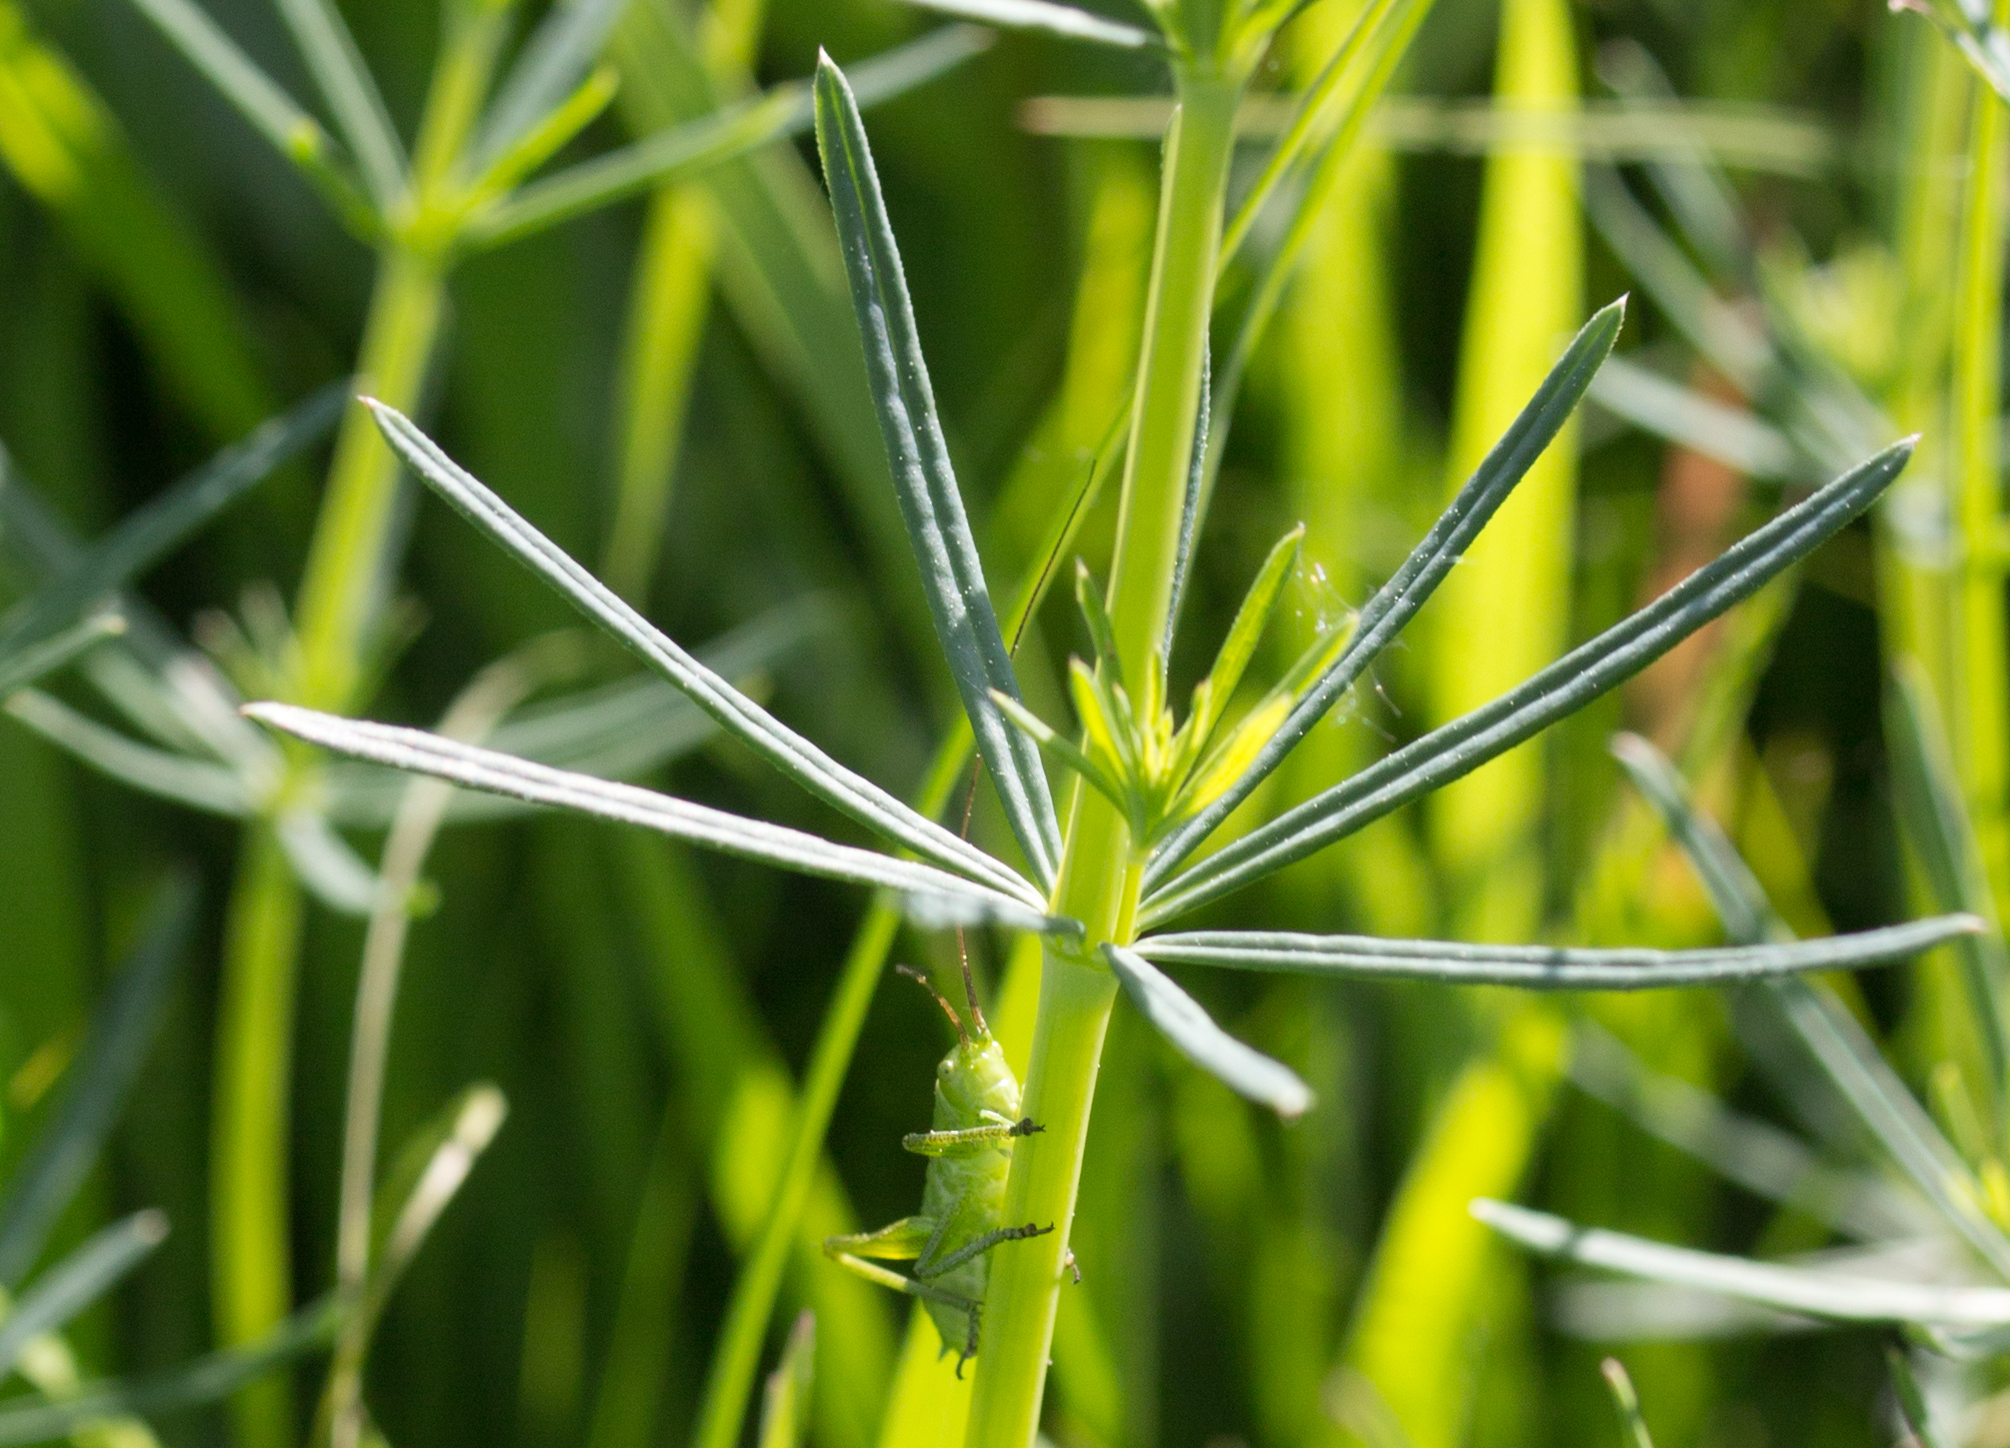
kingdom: Plantae
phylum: Tracheophyta
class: Magnoliopsida
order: Gentianales
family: Rubiaceae
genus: Galium
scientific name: Galium verum
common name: Lady's bedstraw
